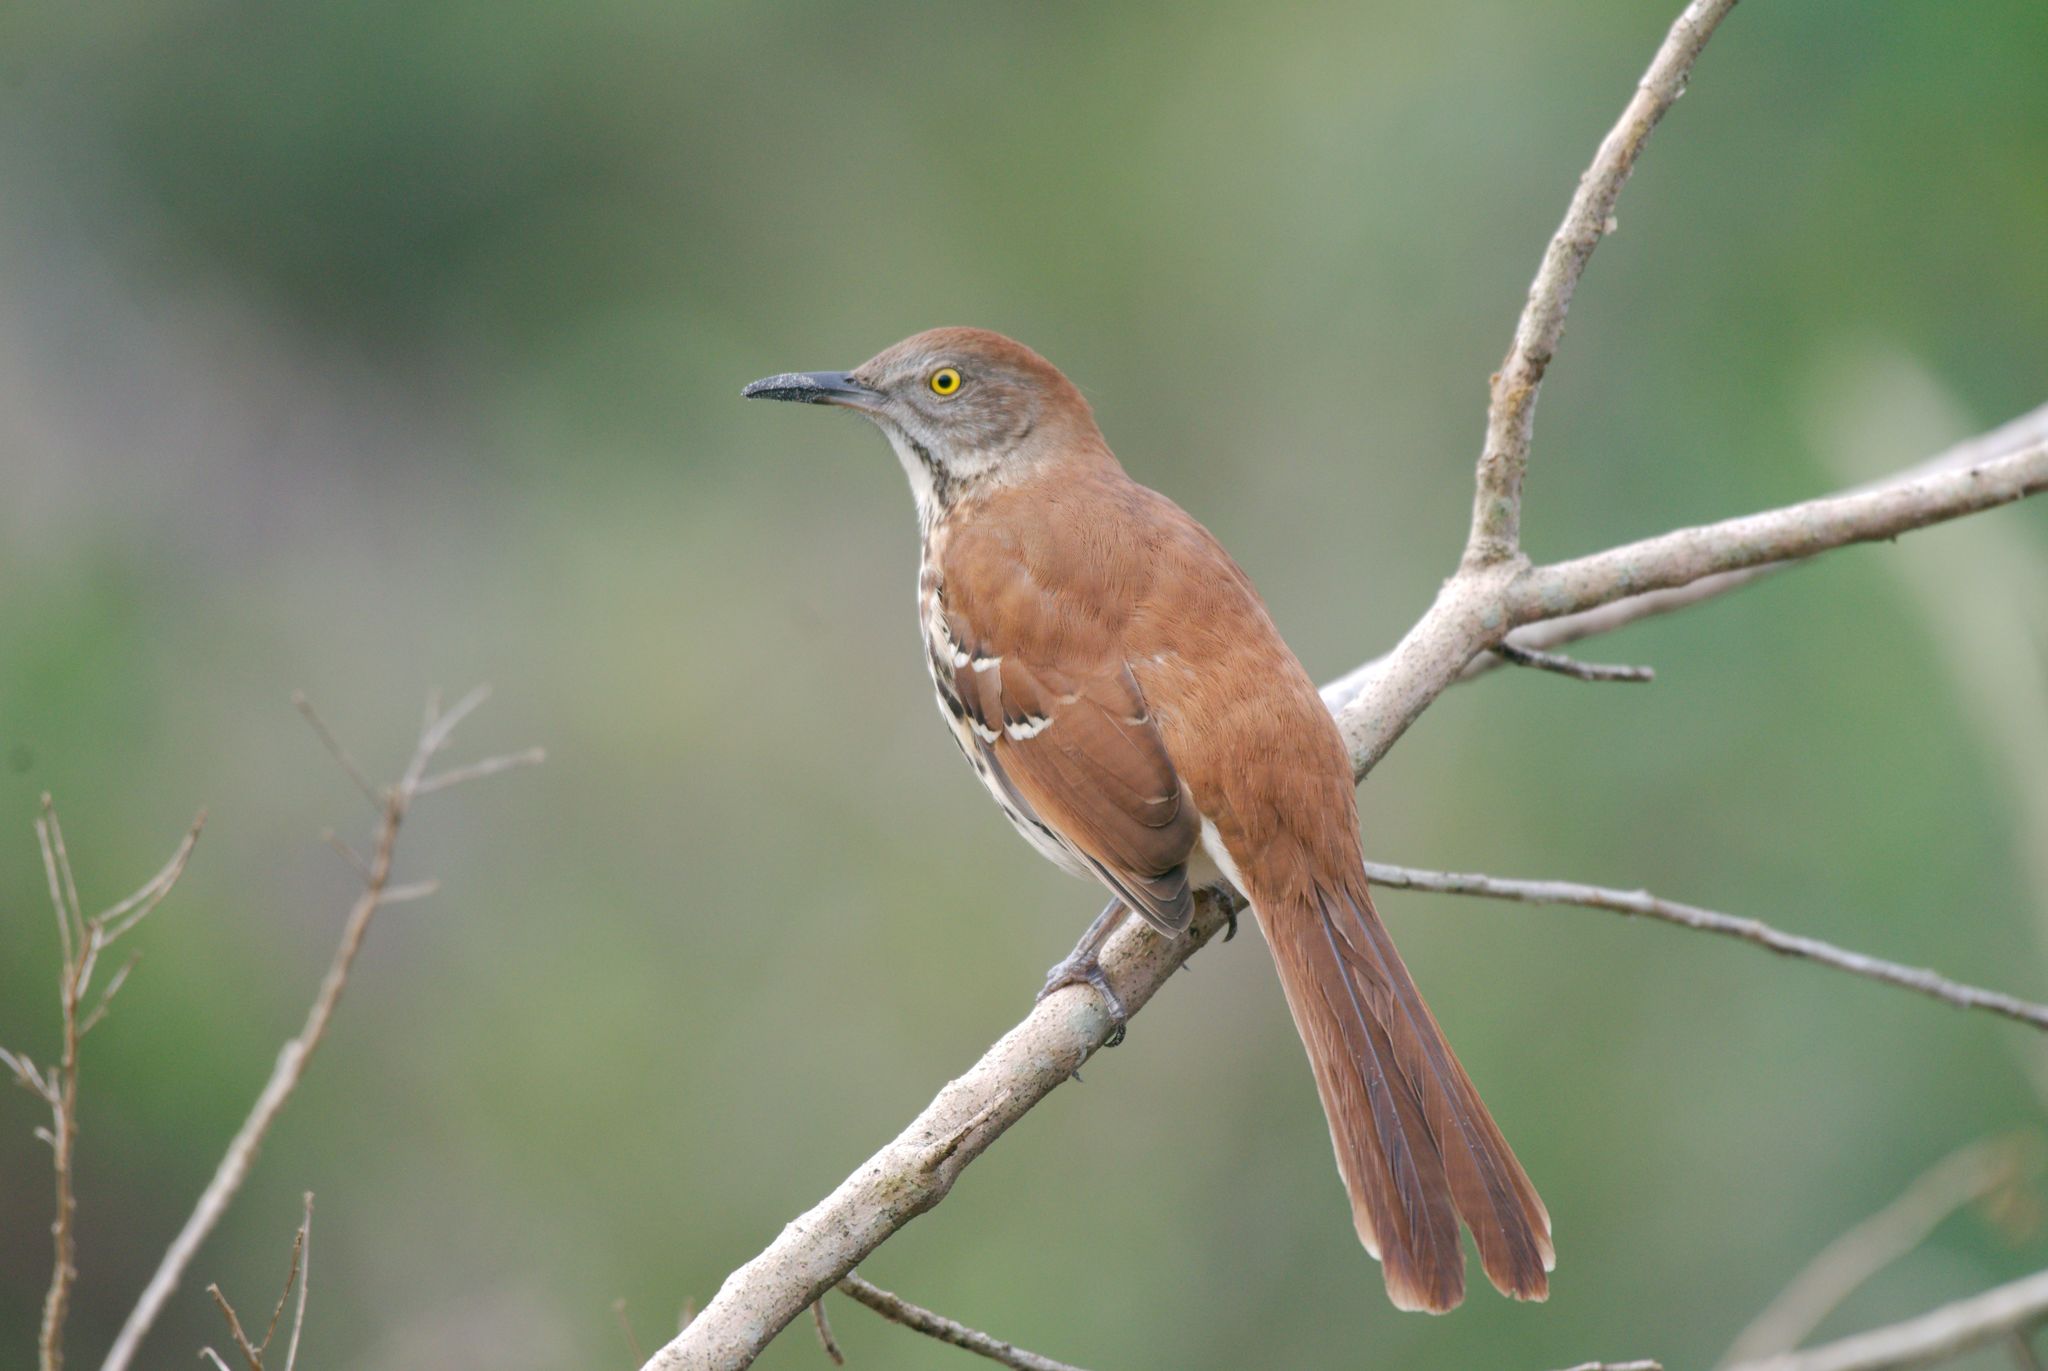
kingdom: Animalia
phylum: Chordata
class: Aves
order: Passeriformes
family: Mimidae
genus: Toxostoma
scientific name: Toxostoma rufum
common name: Brown thrasher
